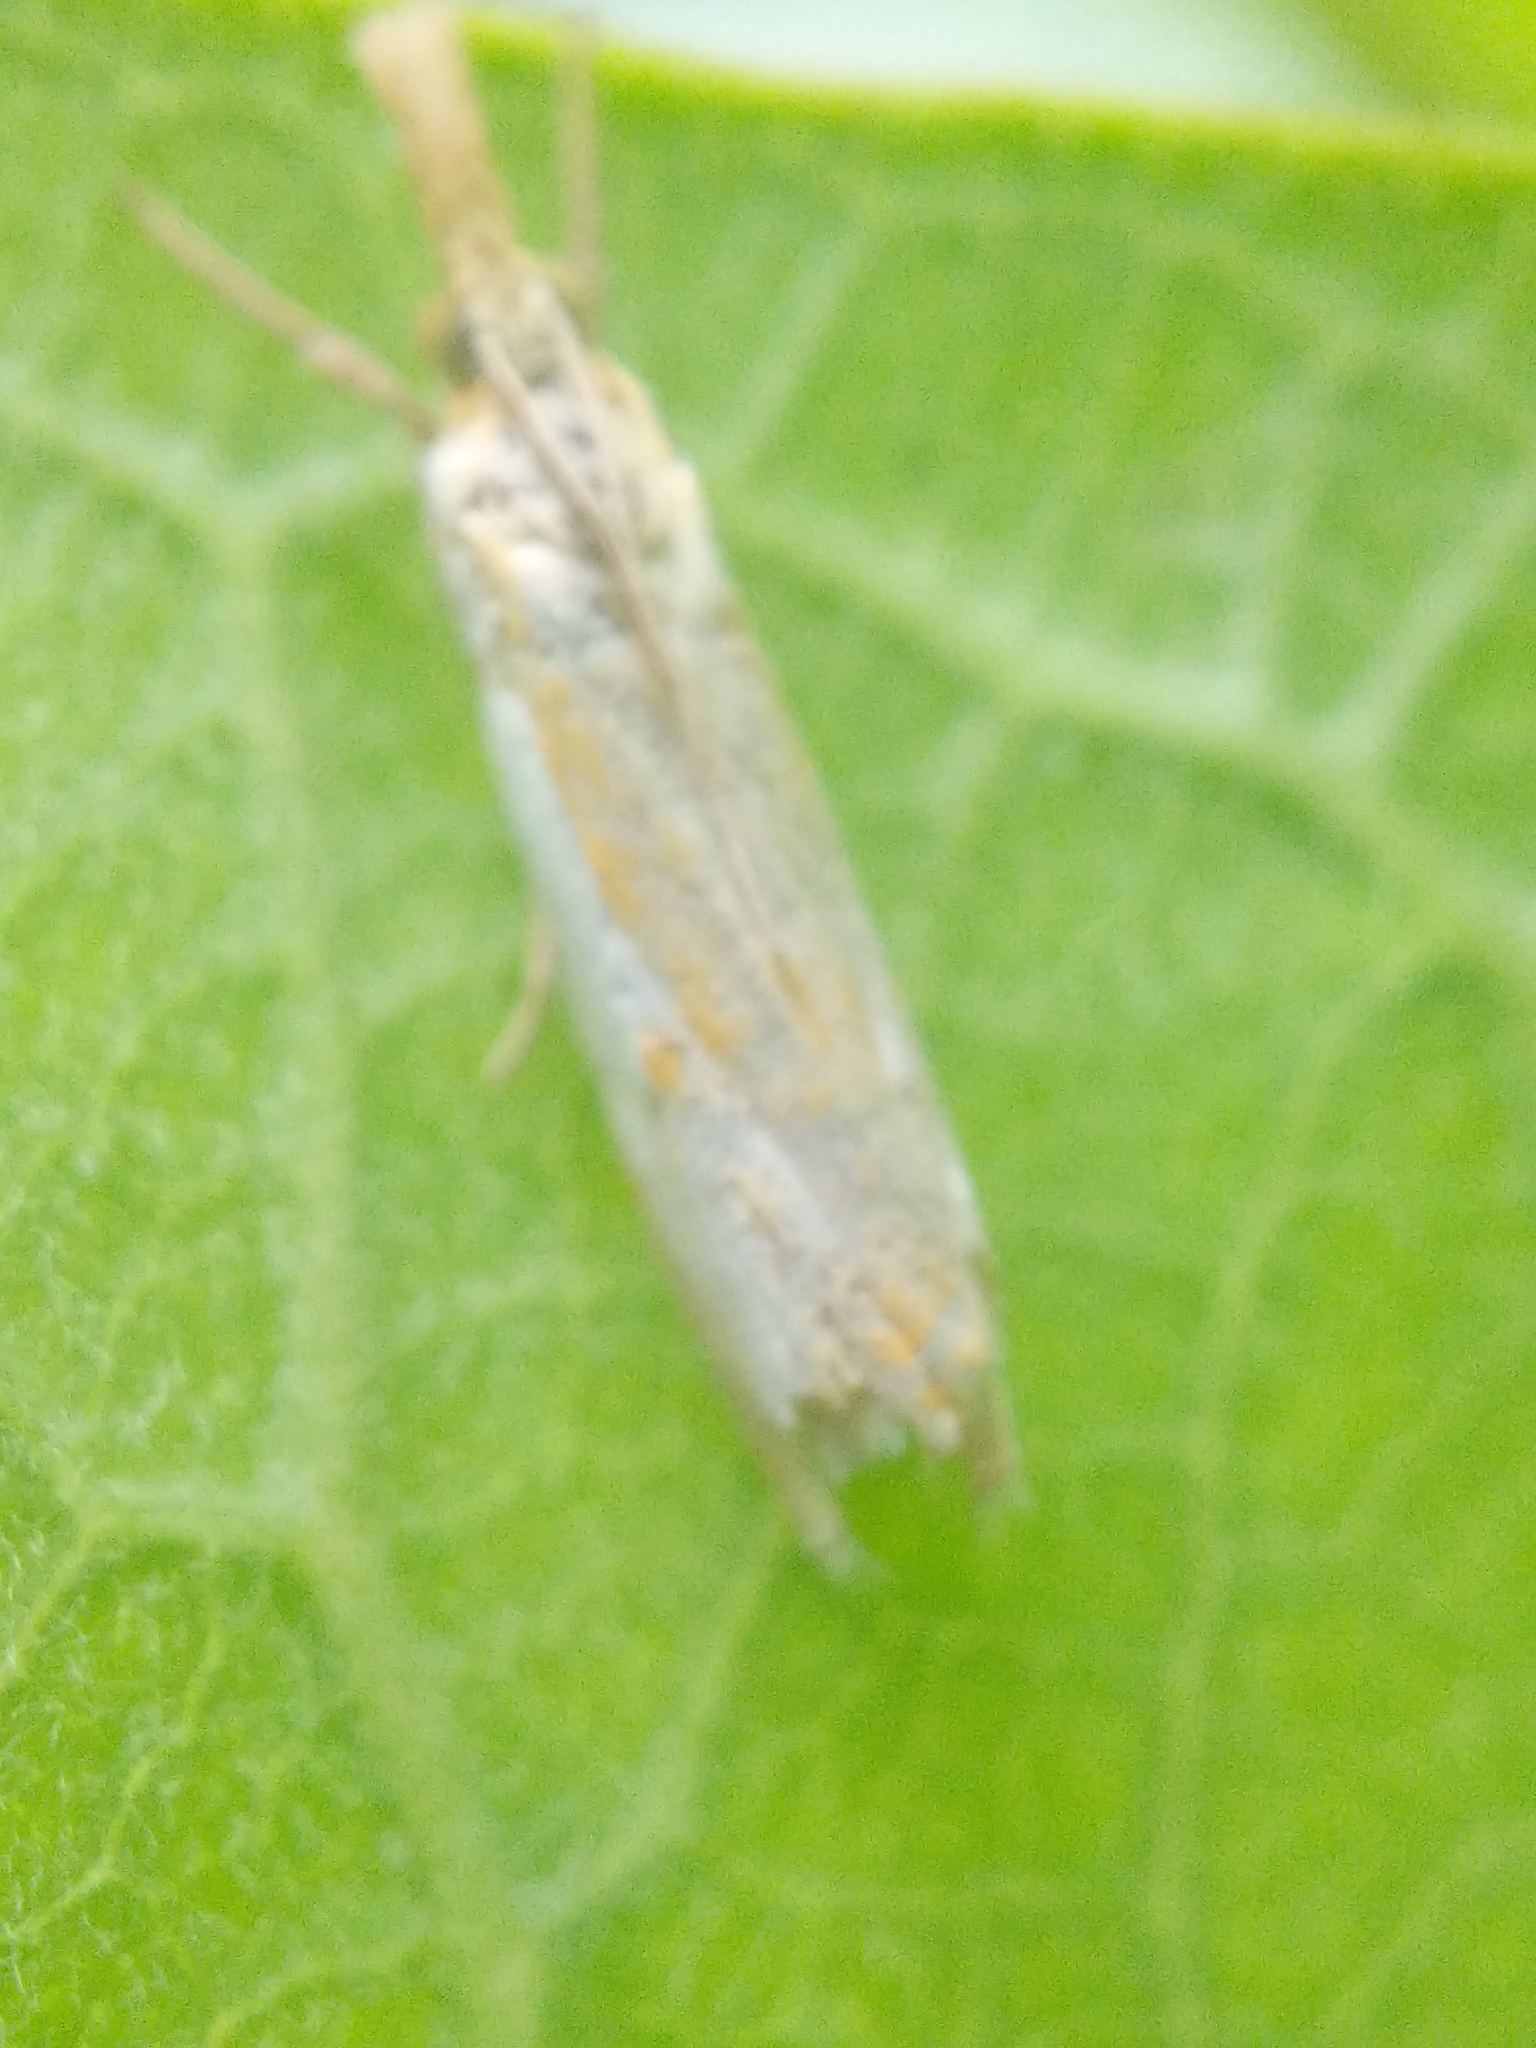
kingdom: Animalia
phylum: Arthropoda
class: Insecta
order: Lepidoptera
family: Crambidae
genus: Crambus
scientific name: Crambus agitatellus
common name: Double-banded grass-veneer
